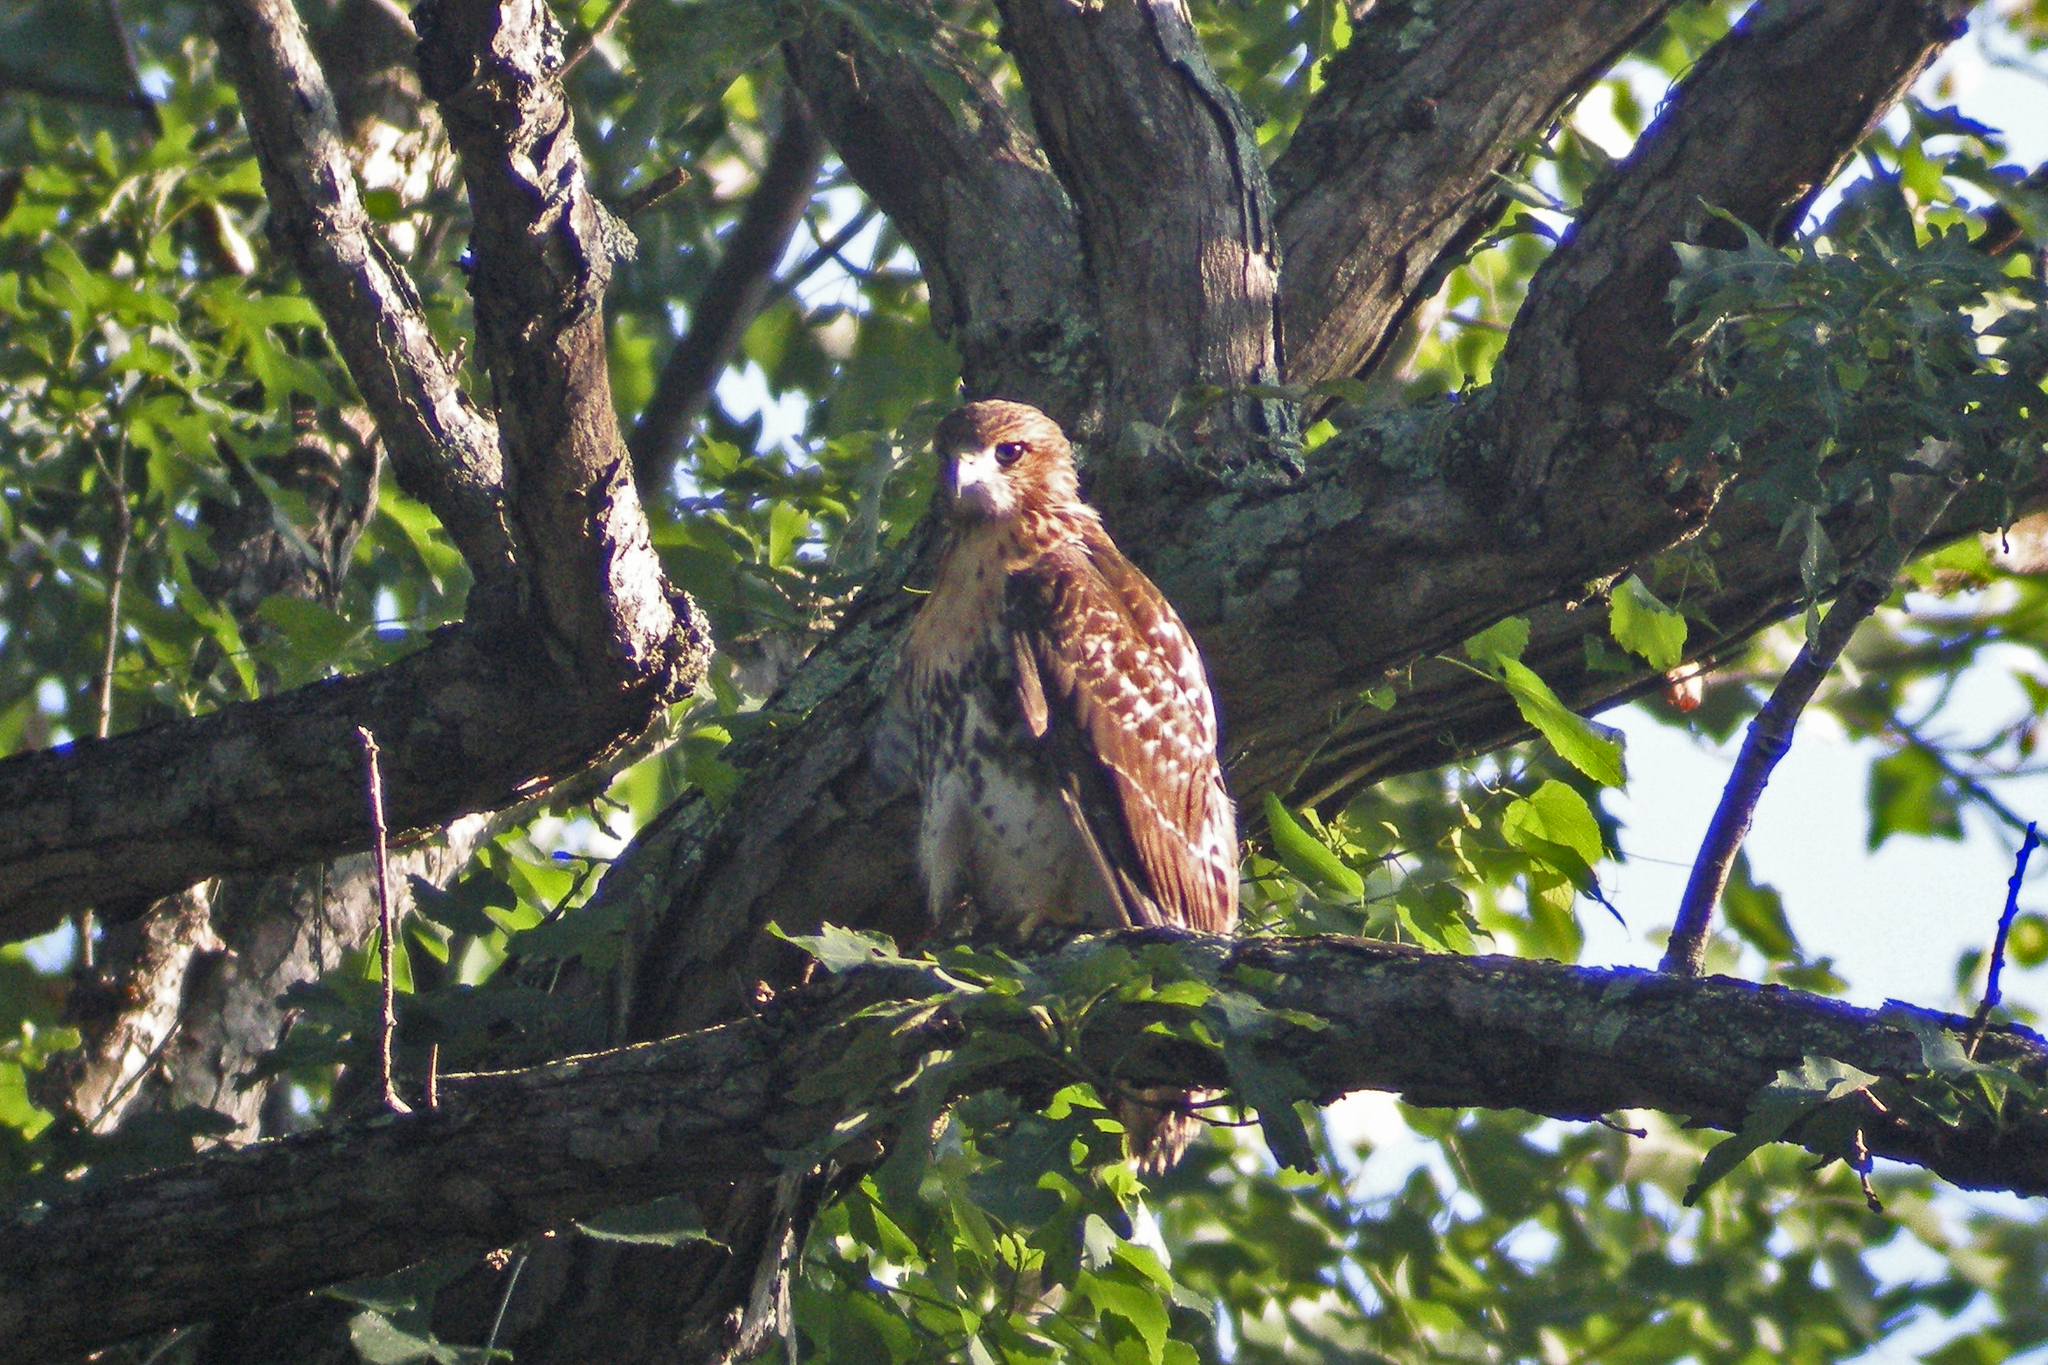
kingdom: Animalia
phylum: Chordata
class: Aves
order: Accipitriformes
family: Accipitridae
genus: Buteo
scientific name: Buteo jamaicensis
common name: Red-tailed hawk
